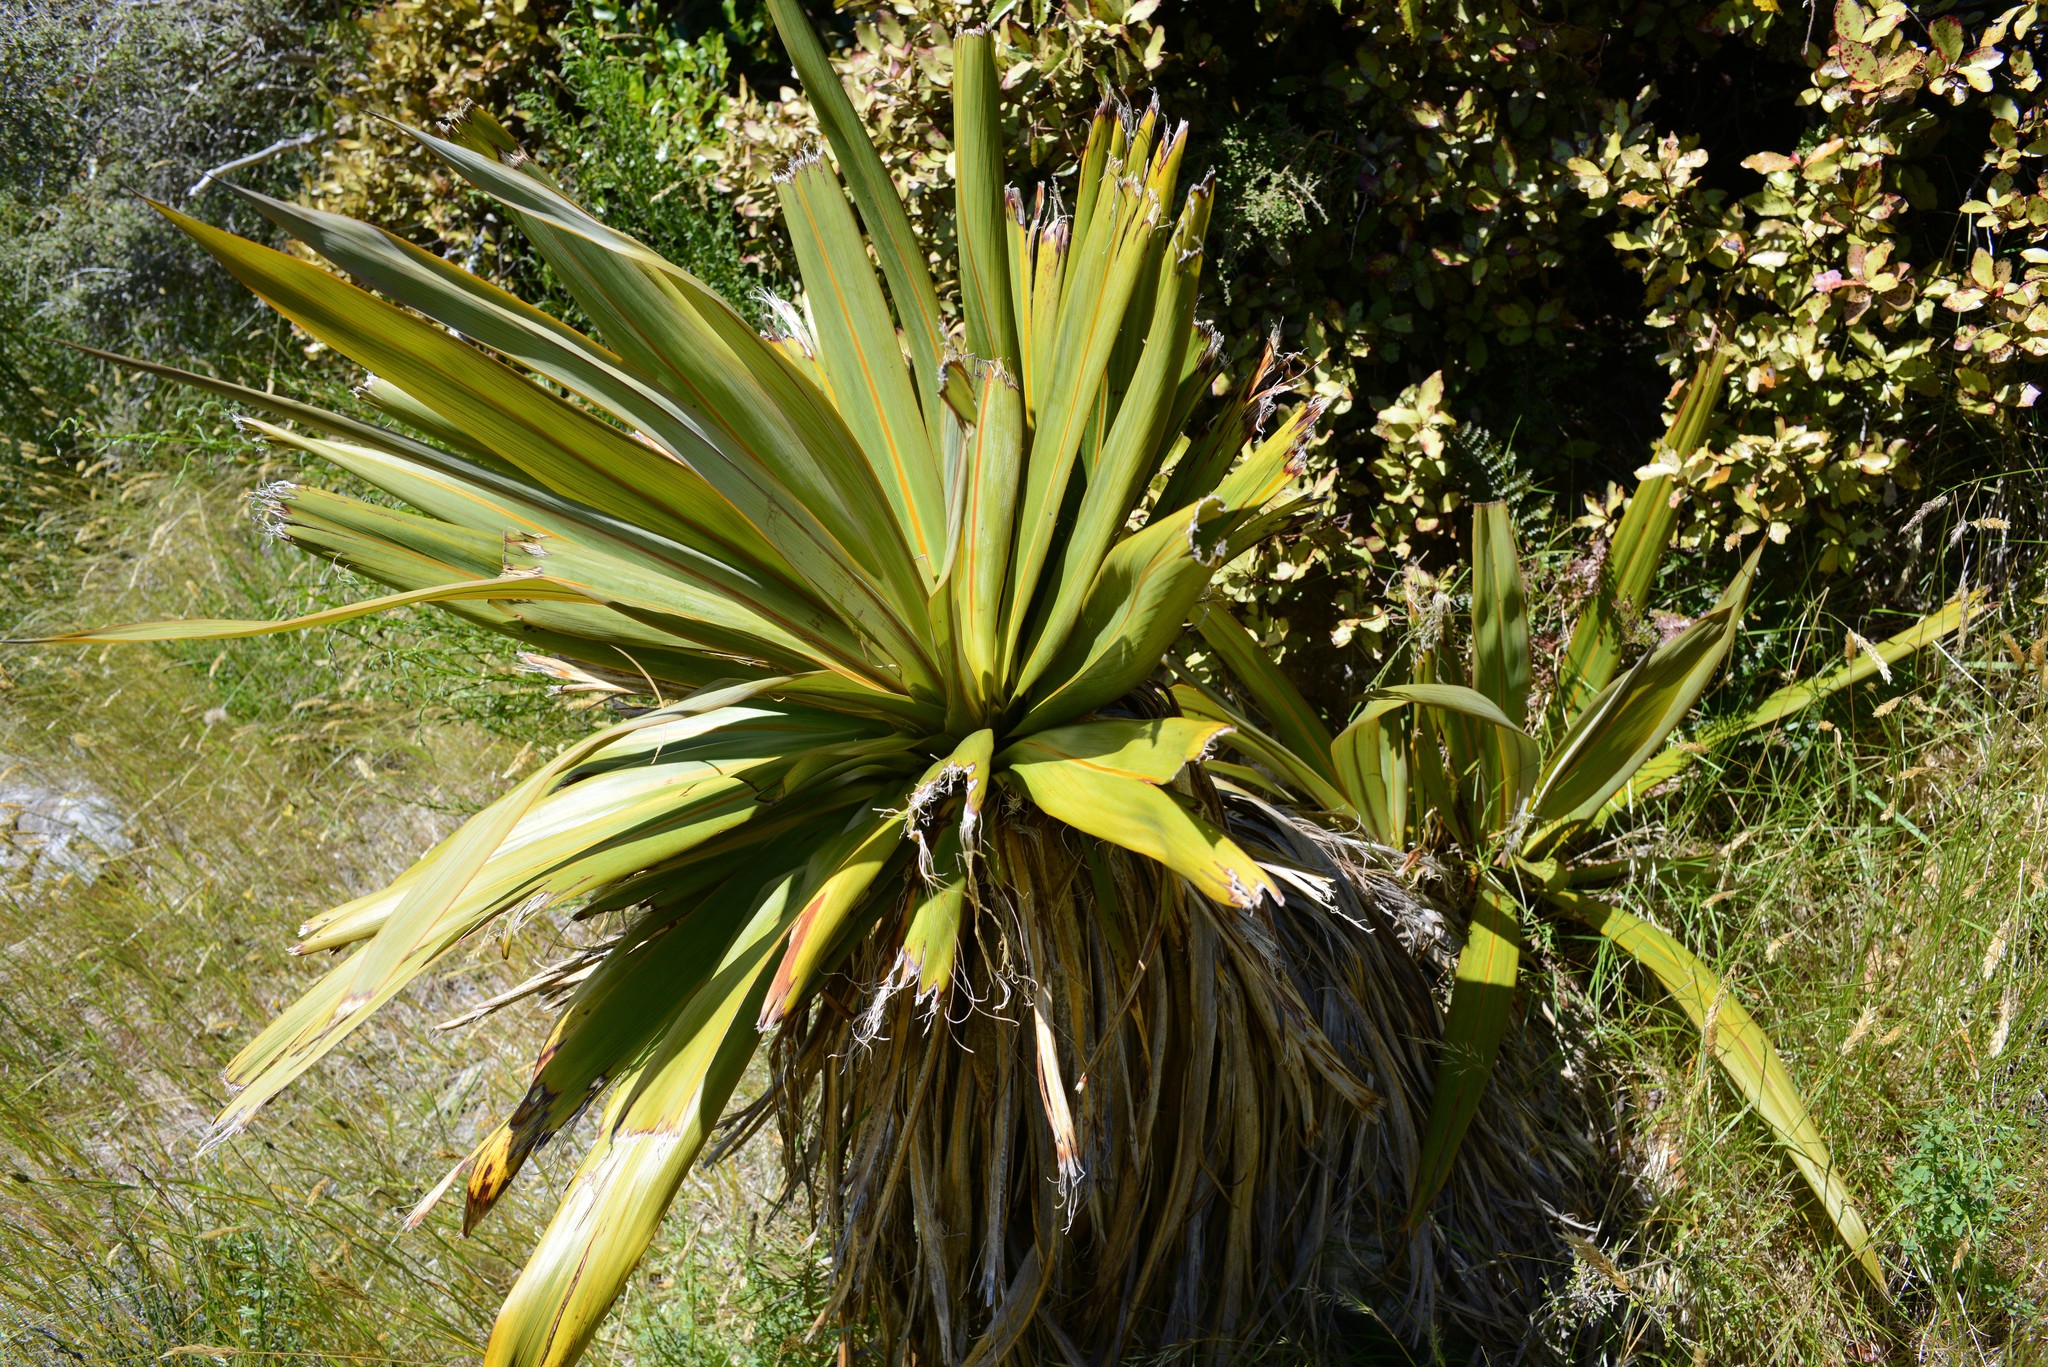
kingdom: Plantae
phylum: Tracheophyta
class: Liliopsida
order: Asparagales
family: Asparagaceae
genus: Cordyline
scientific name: Cordyline indivisa
